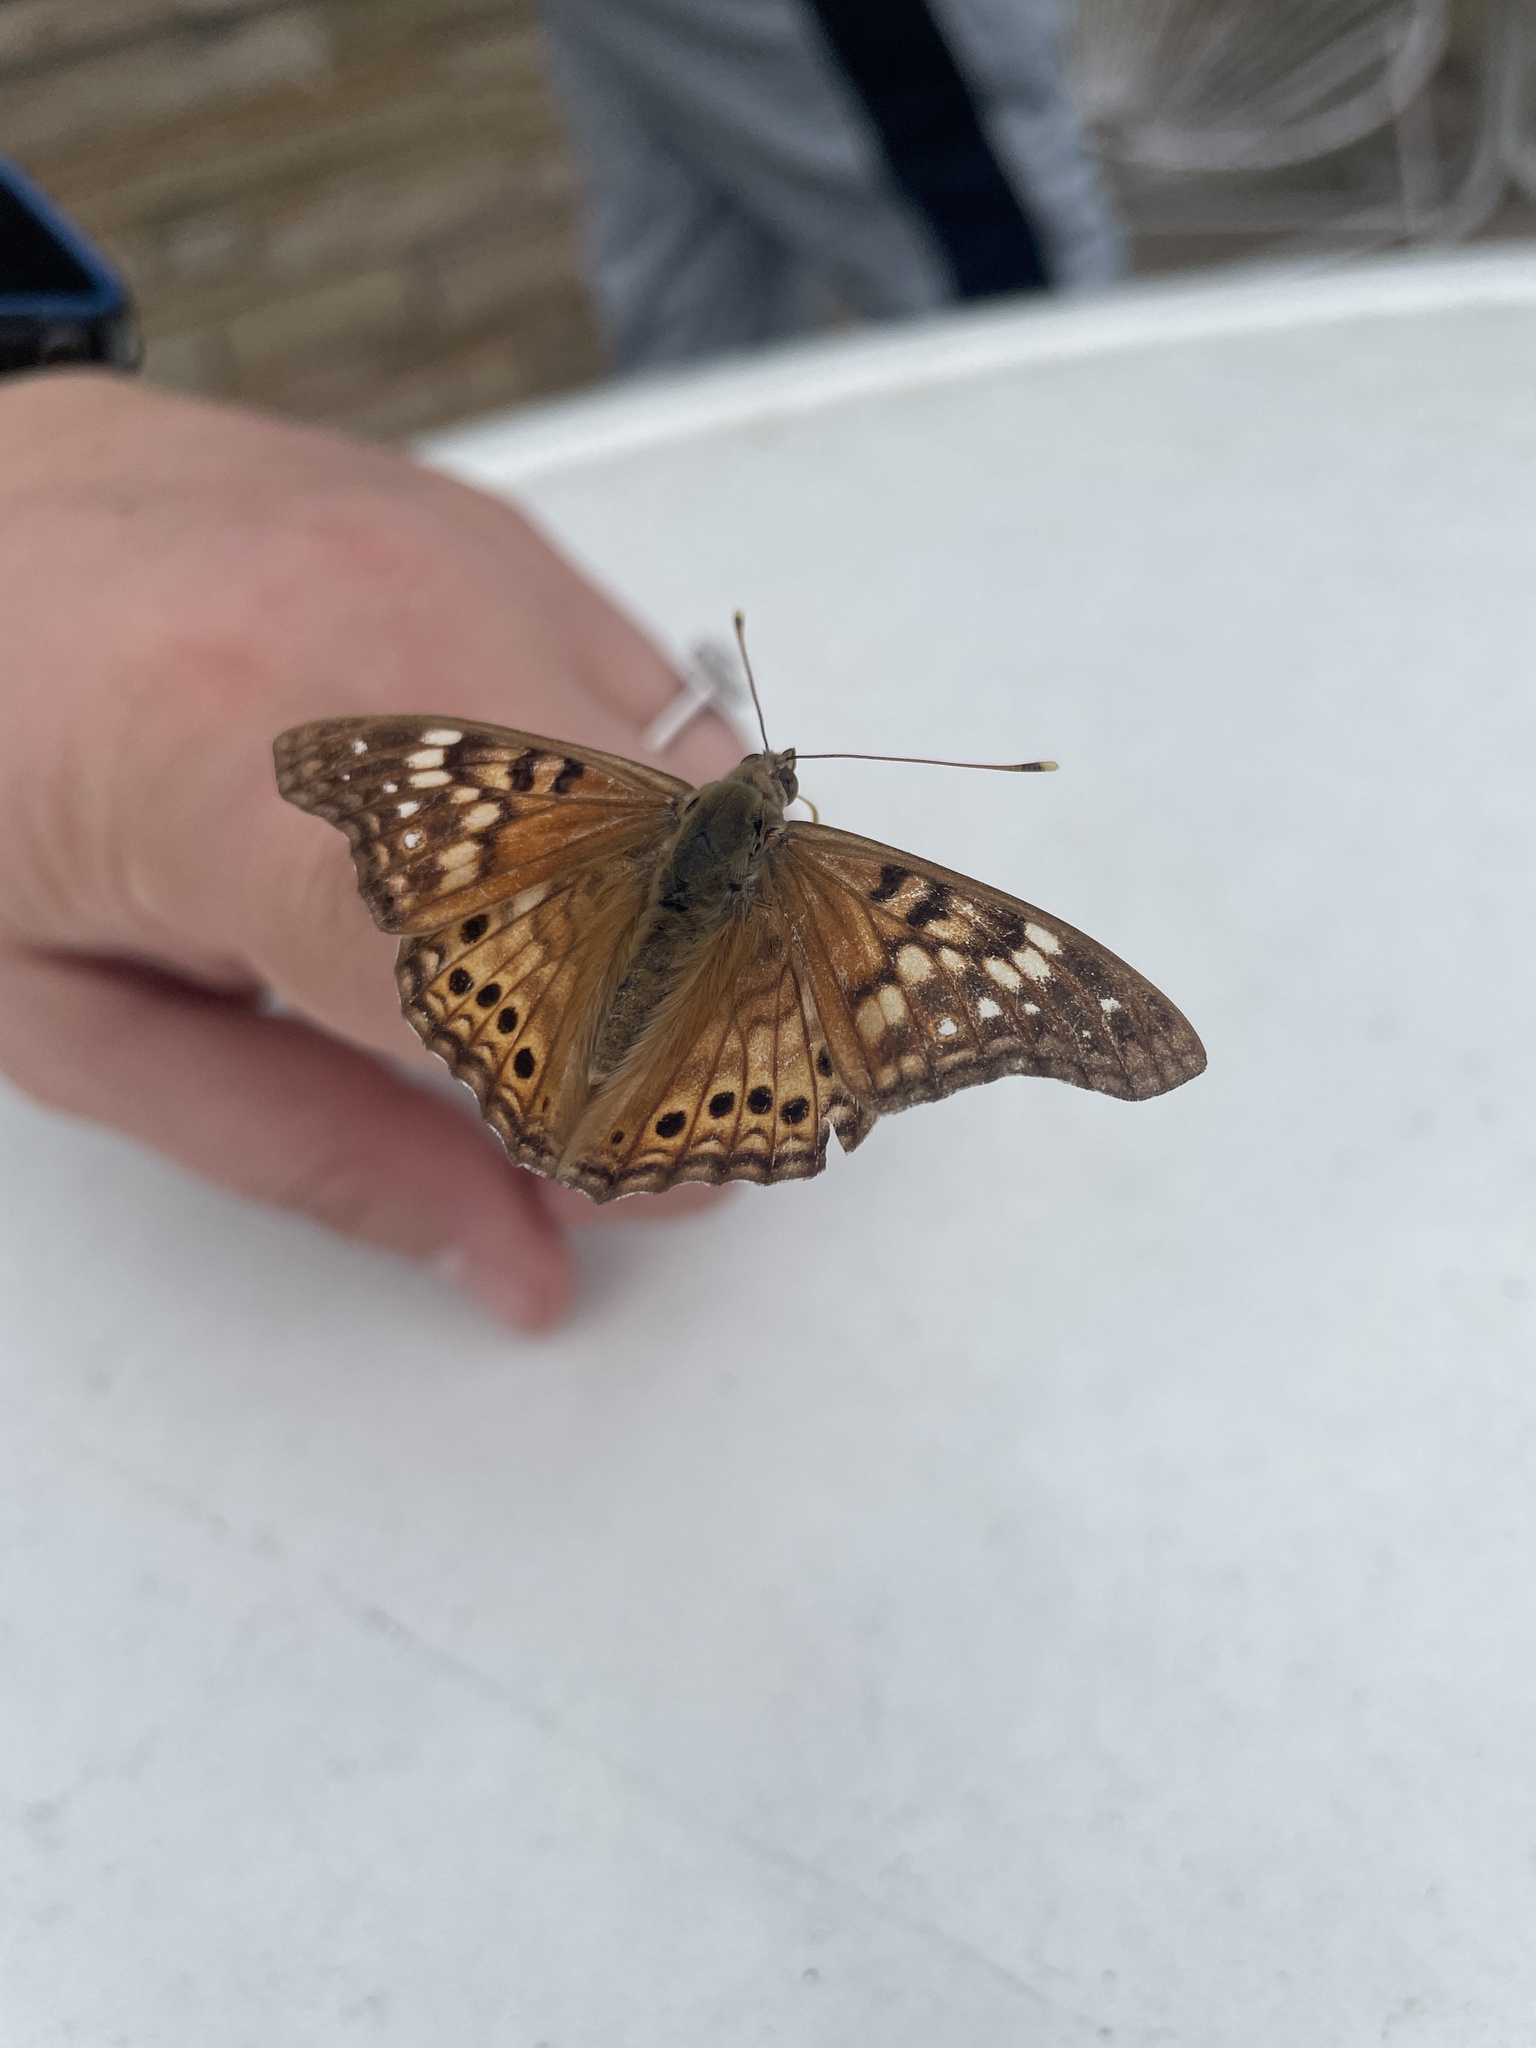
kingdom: Animalia
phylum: Arthropoda
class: Insecta
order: Lepidoptera
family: Nymphalidae
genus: Asterocampa
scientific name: Asterocampa clyton
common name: Tawny emperor
